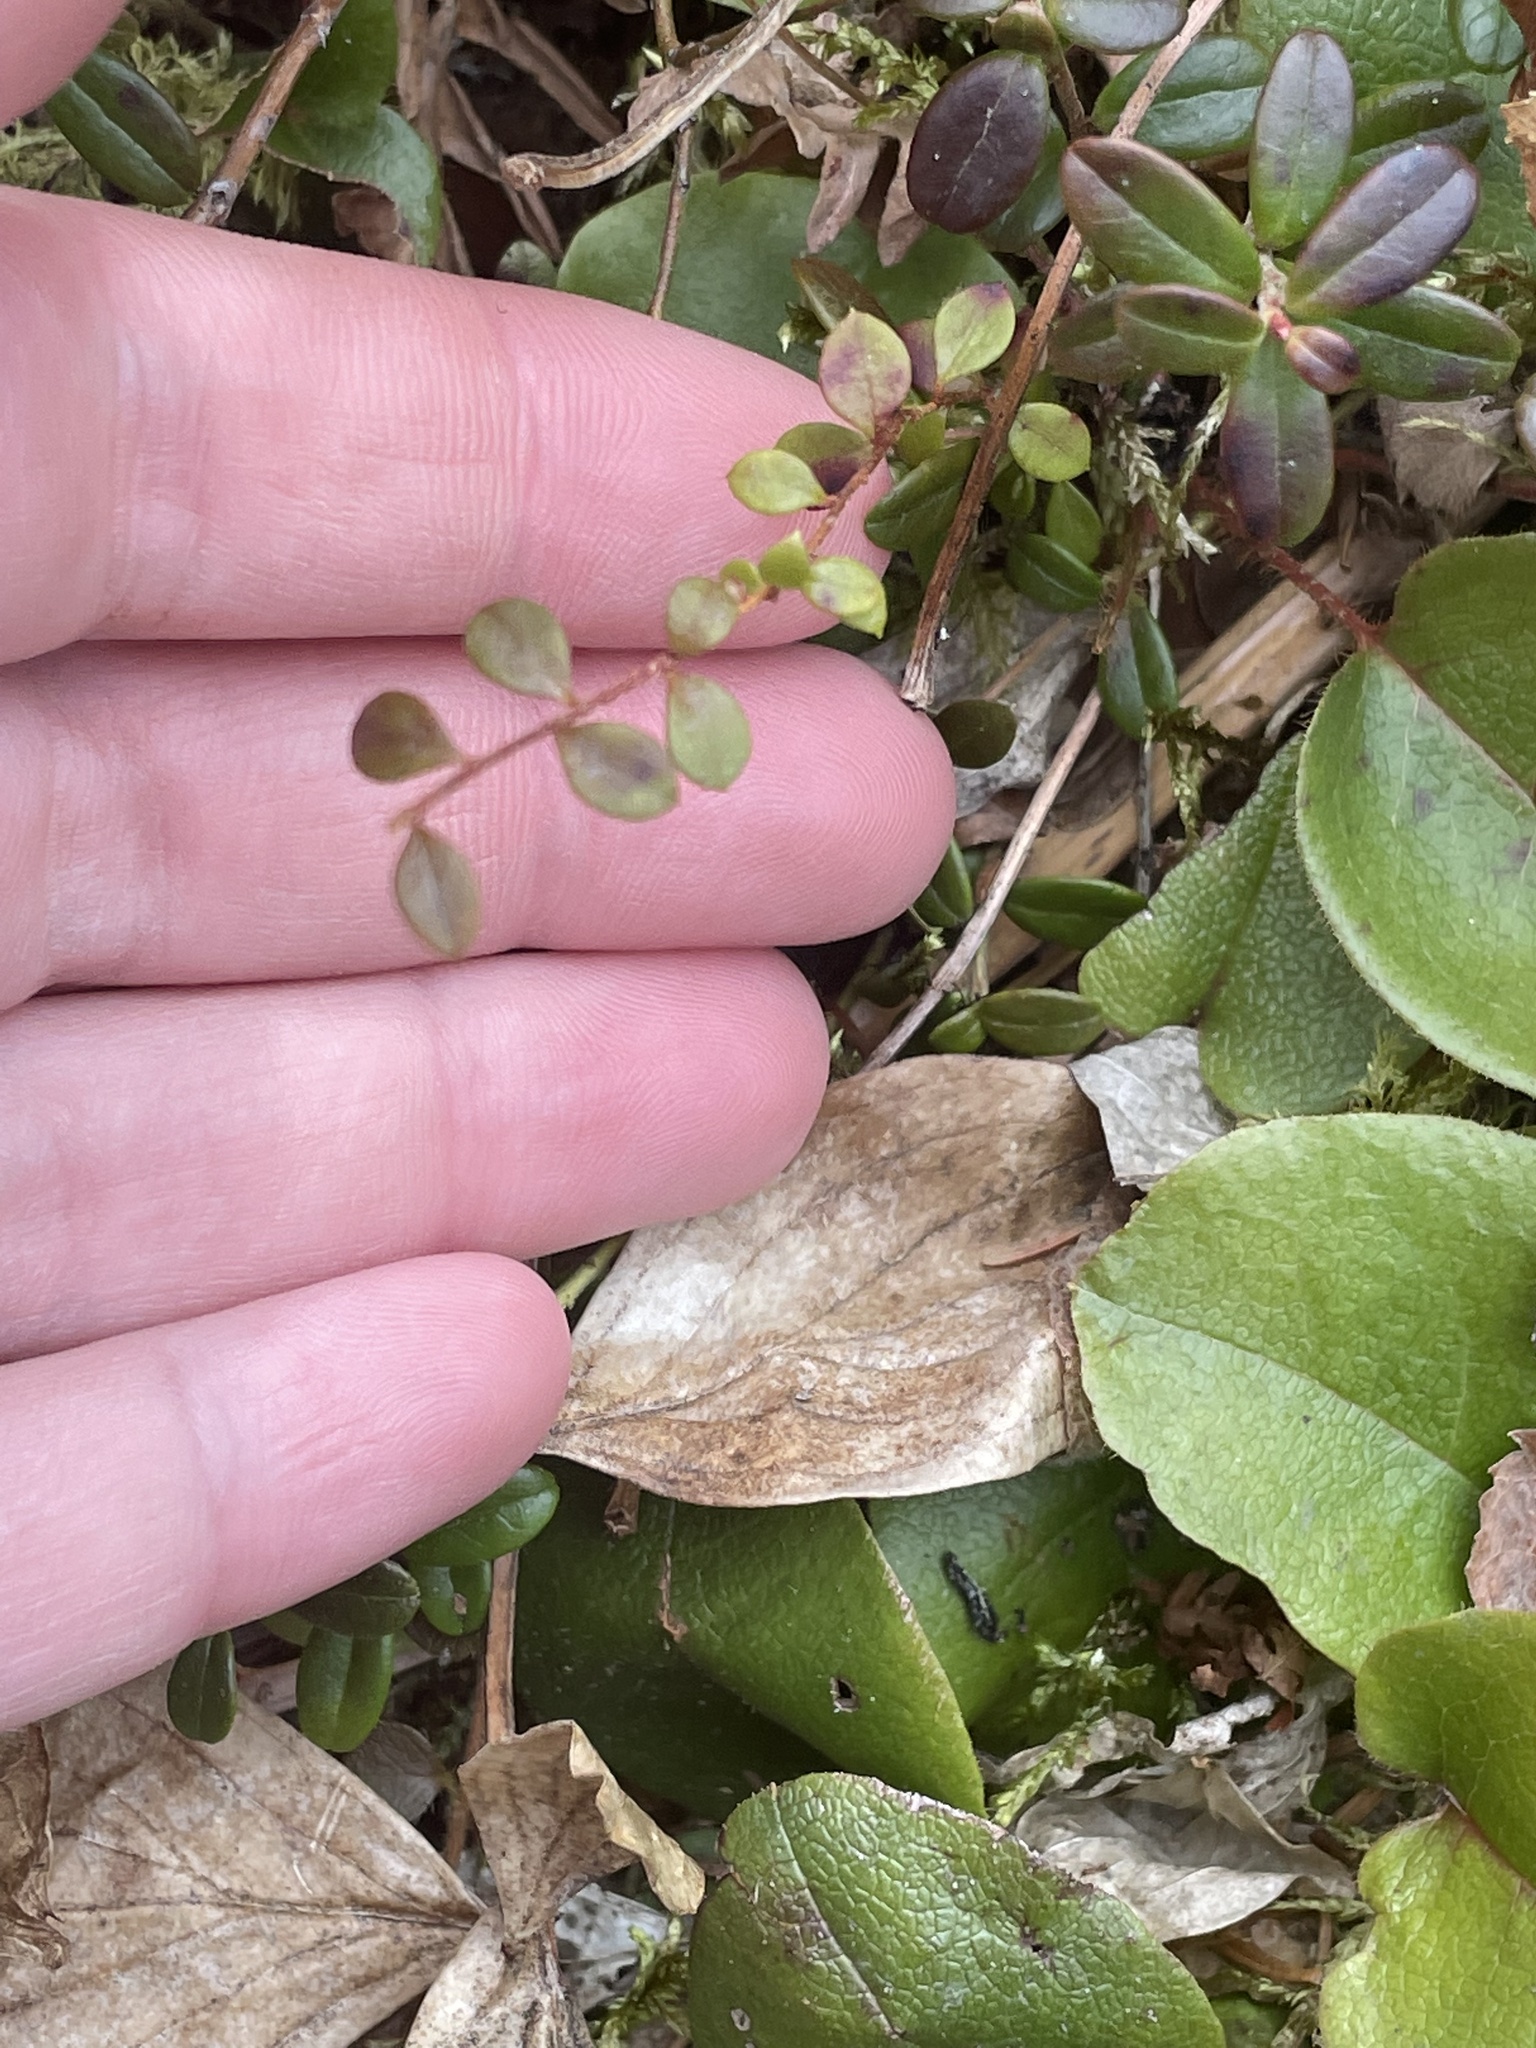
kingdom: Plantae
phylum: Tracheophyta
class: Magnoliopsida
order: Ericales
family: Ericaceae
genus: Gaultheria
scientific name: Gaultheria hispidula
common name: Cancer wintergreen
